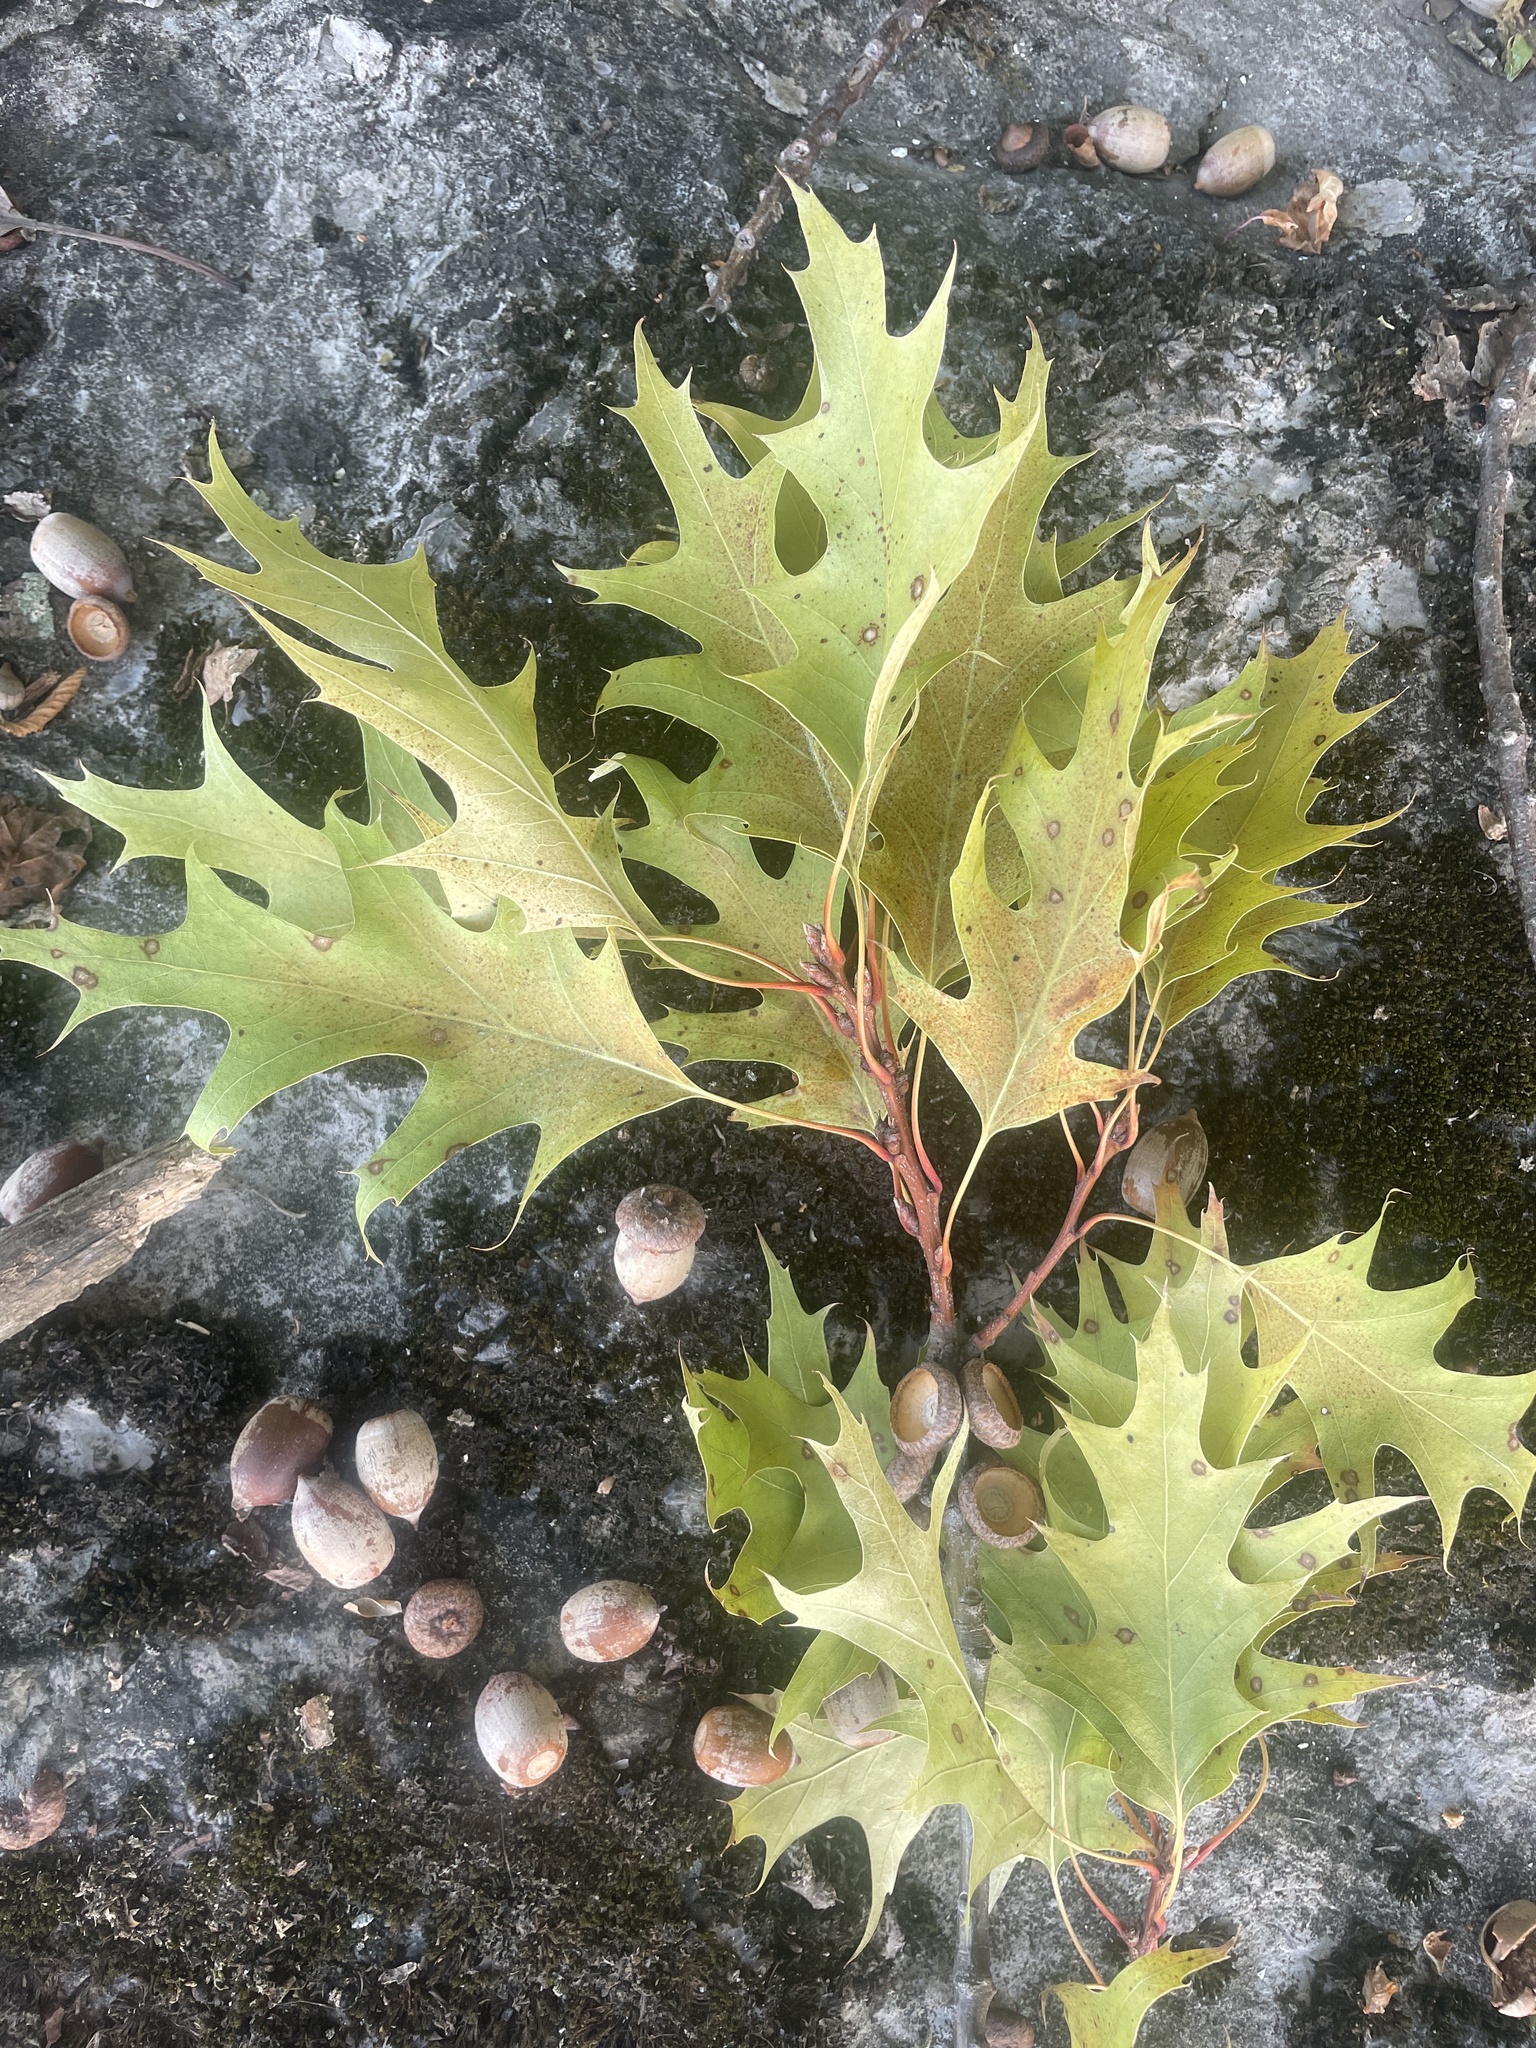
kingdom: Plantae
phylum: Tracheophyta
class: Magnoliopsida
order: Fagales
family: Fagaceae
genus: Quercus
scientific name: Quercus rubra
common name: Red oak
